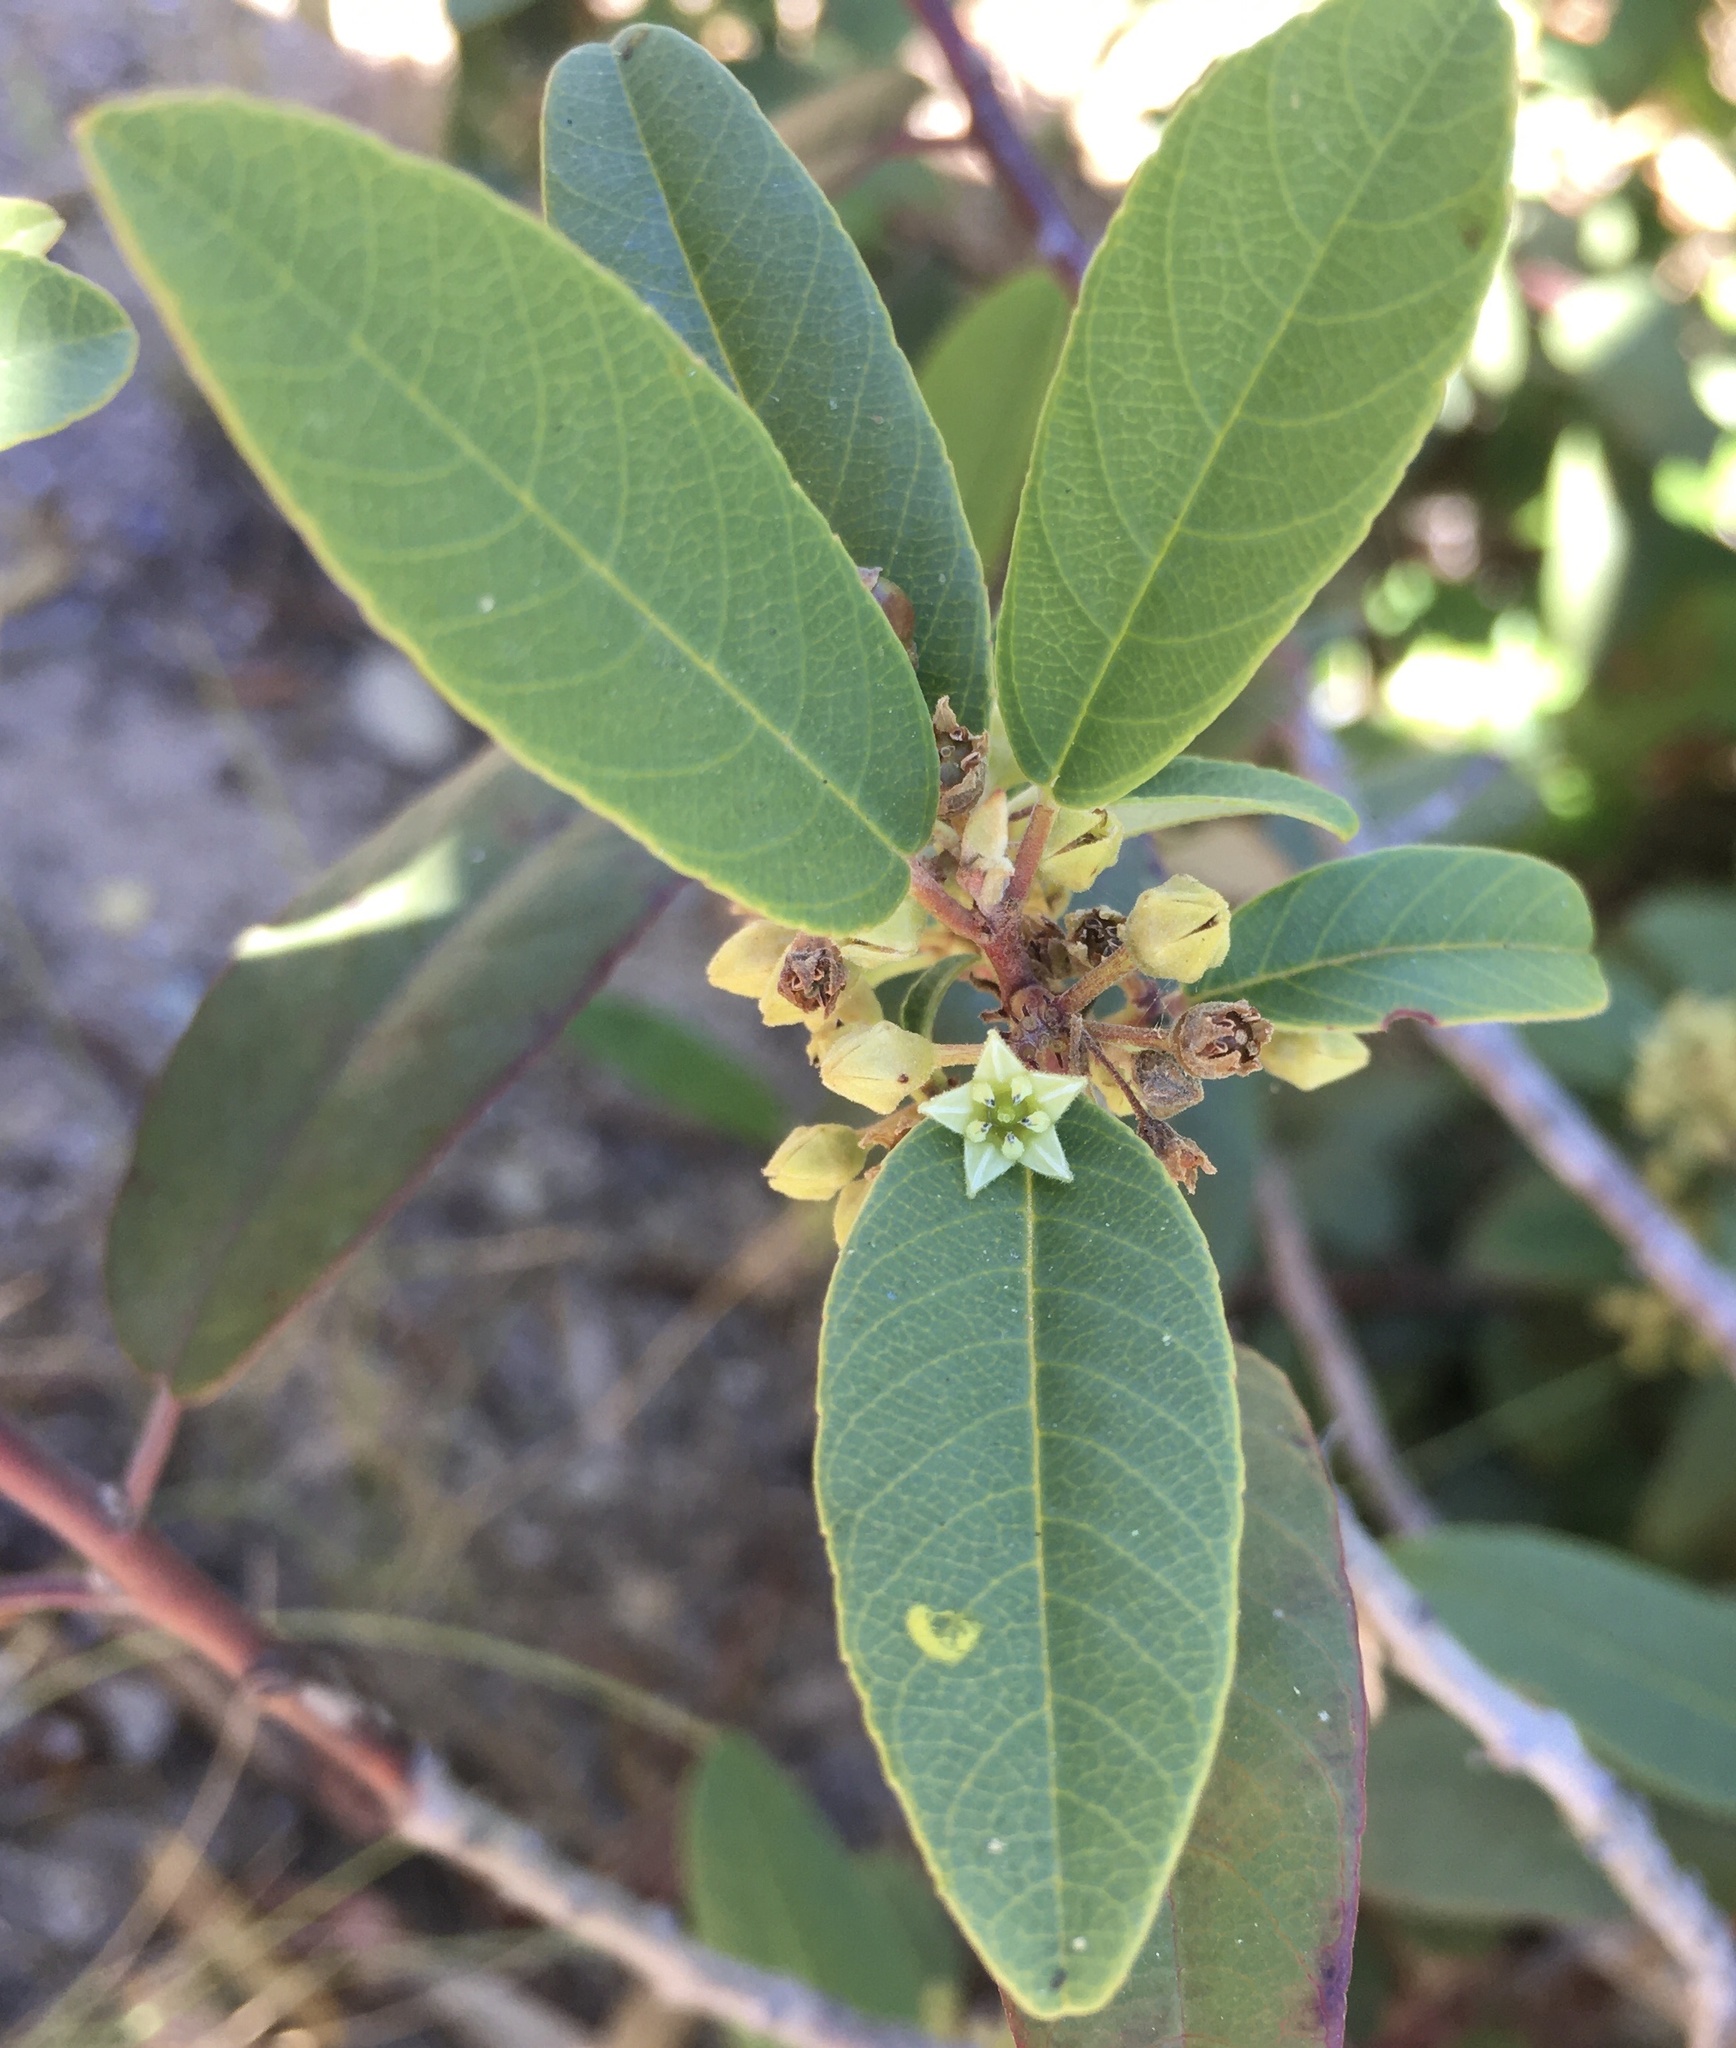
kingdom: Plantae
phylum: Tracheophyta
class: Magnoliopsida
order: Rosales
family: Rhamnaceae
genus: Frangula
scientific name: Frangula californica
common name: California buckthorn
